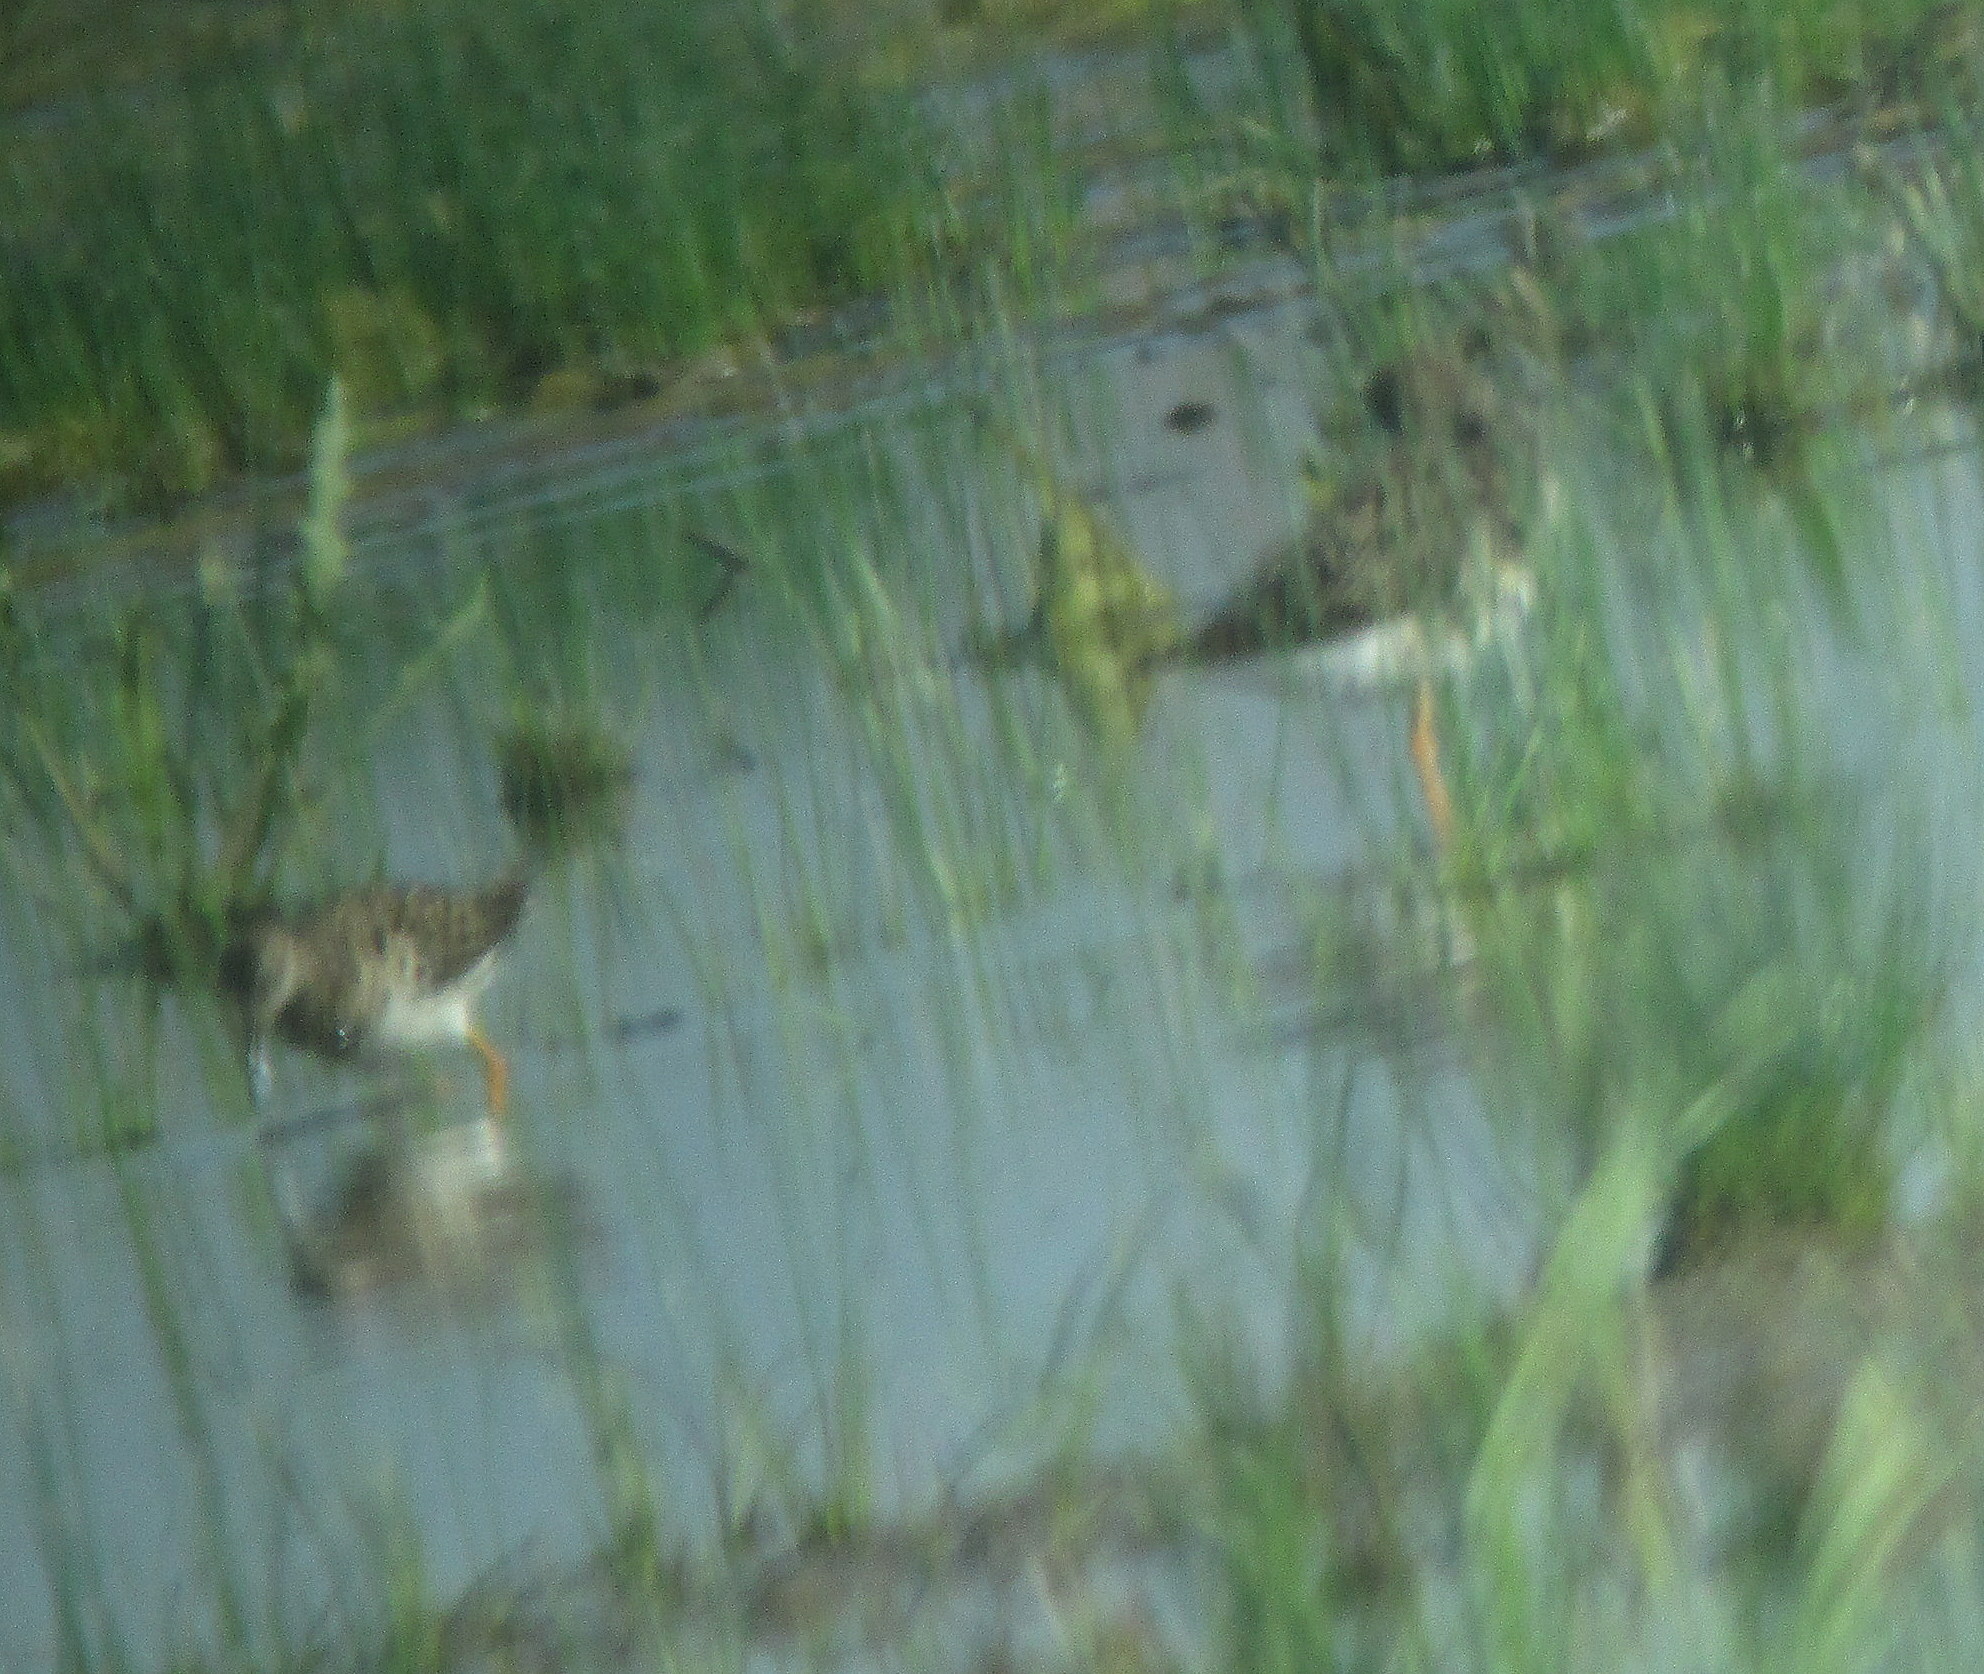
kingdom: Animalia
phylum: Chordata
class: Aves
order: Charadriiformes
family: Scolopacidae
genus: Calidris
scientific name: Calidris pugnax
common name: Ruff
